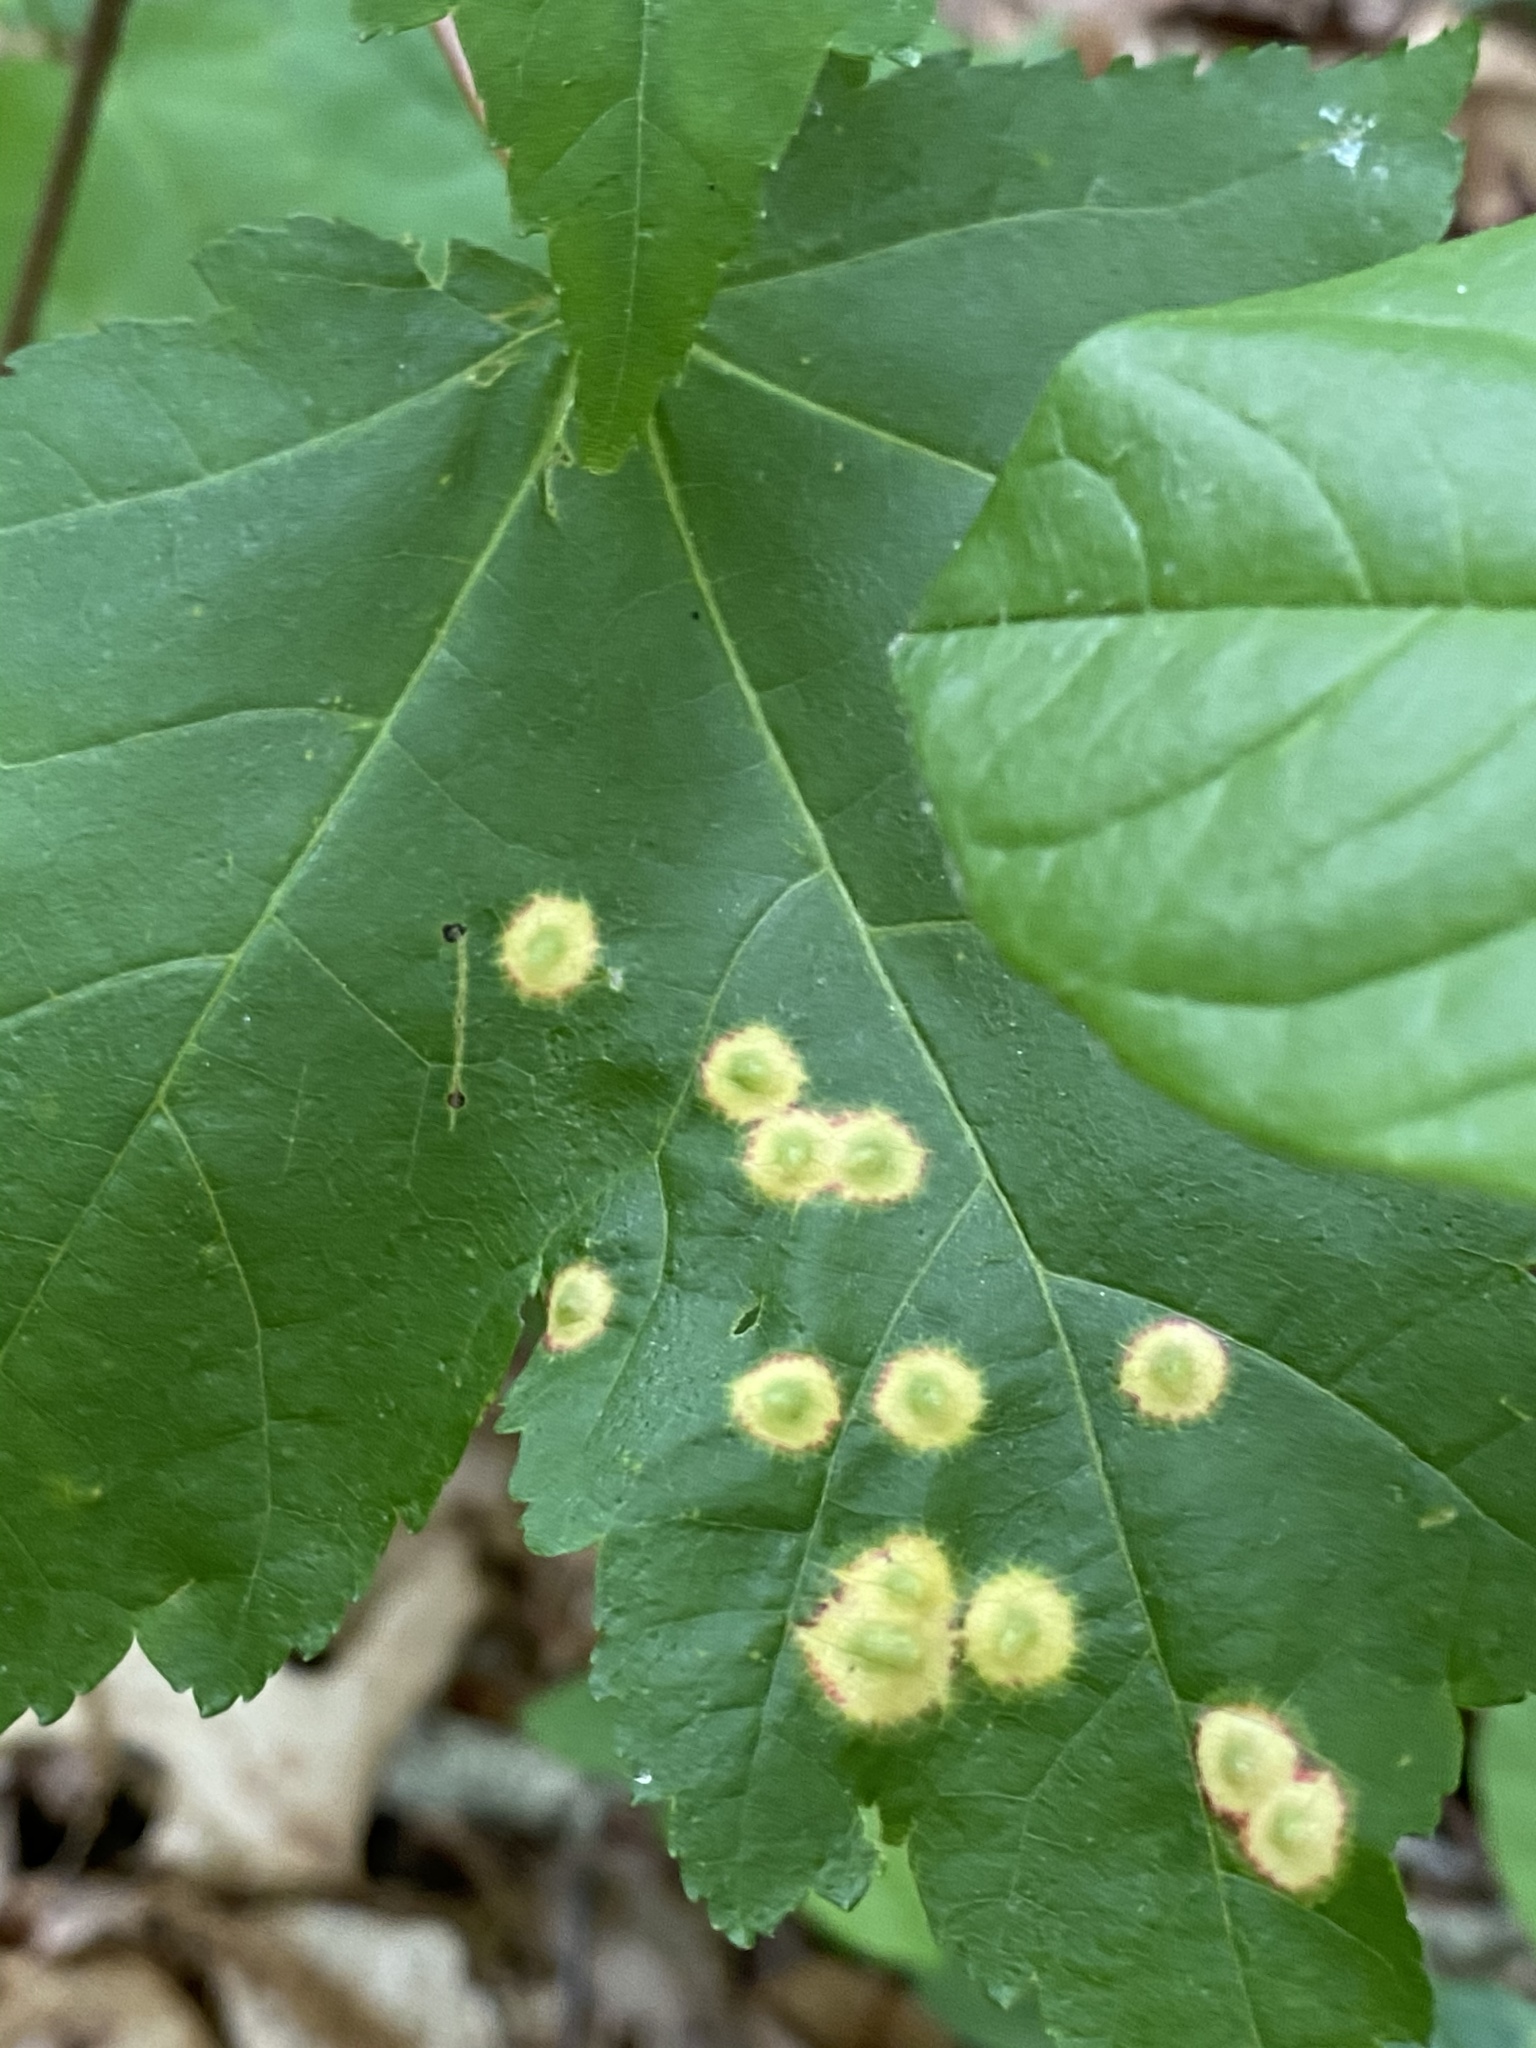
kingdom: Animalia
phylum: Arthropoda
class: Insecta
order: Diptera
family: Cecidomyiidae
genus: Acericecis
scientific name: Acericecis ocellaris
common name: Ocellate gall midge
